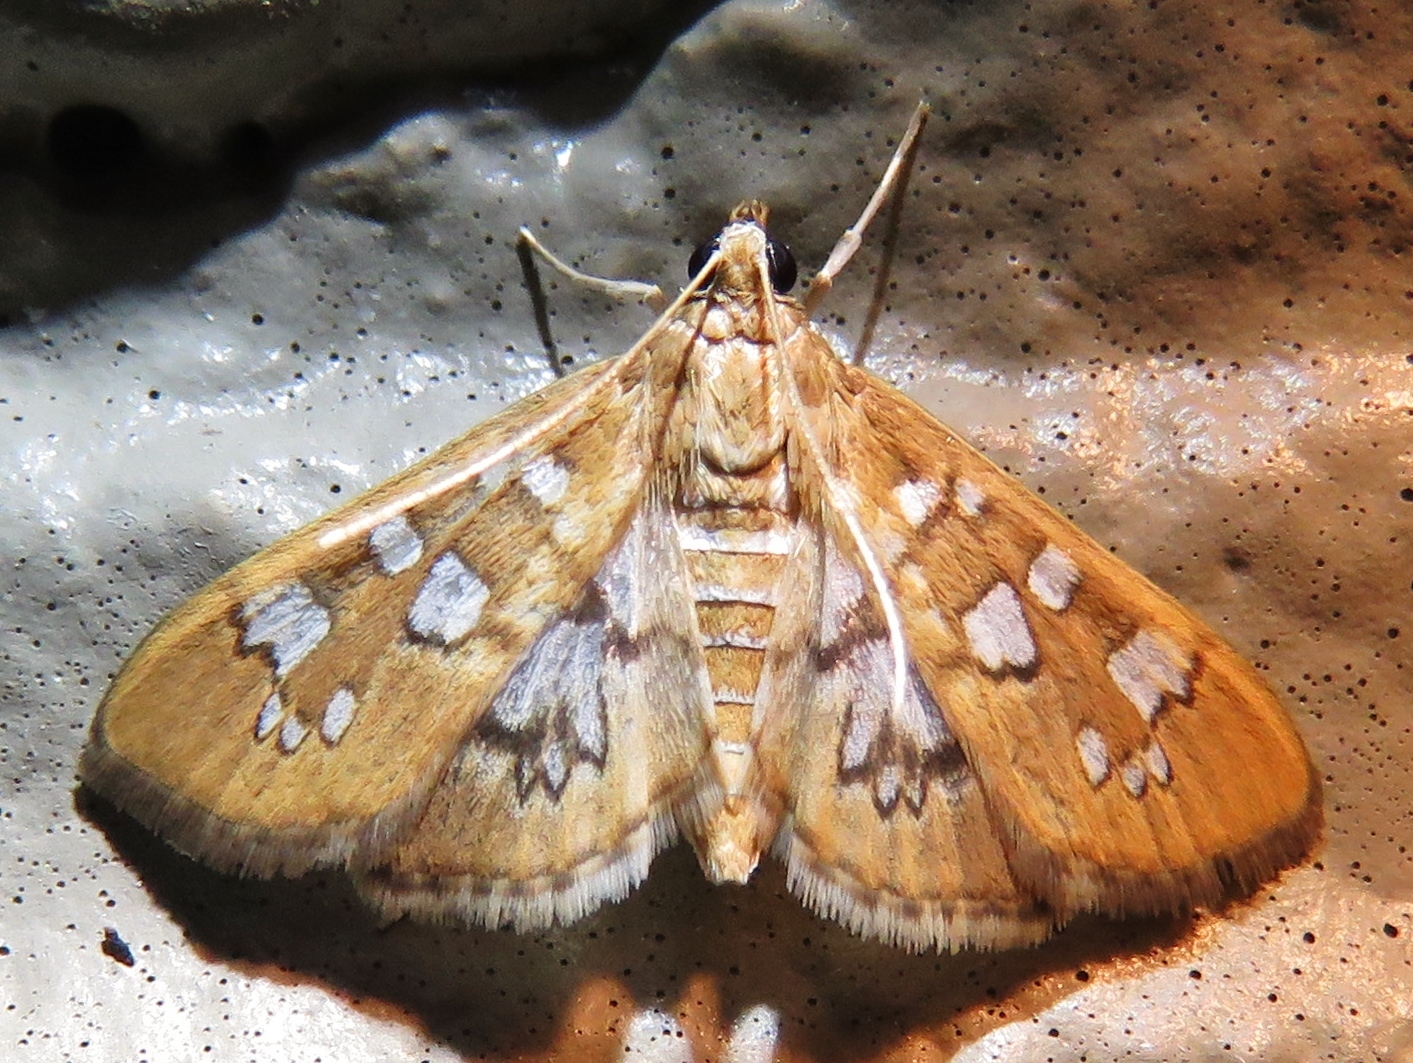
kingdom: Animalia
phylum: Arthropoda
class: Insecta
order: Lepidoptera
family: Crambidae
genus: Samea
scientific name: Samea baccatalis
